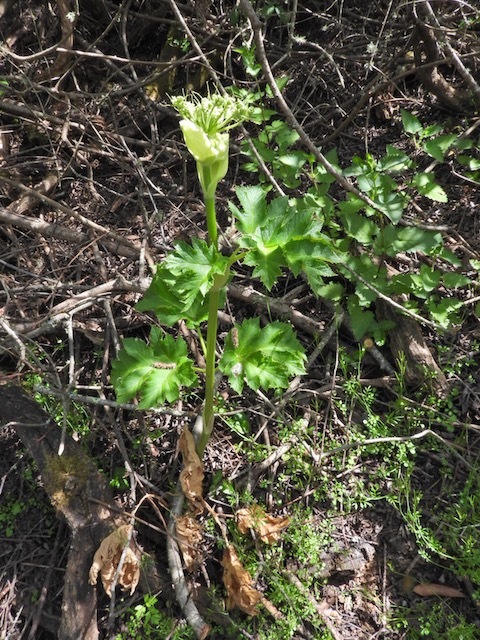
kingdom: Plantae
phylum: Tracheophyta
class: Magnoliopsida
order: Apiales
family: Apiaceae
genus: Heracleum
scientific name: Heracleum maximum
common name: American cow parsnip
